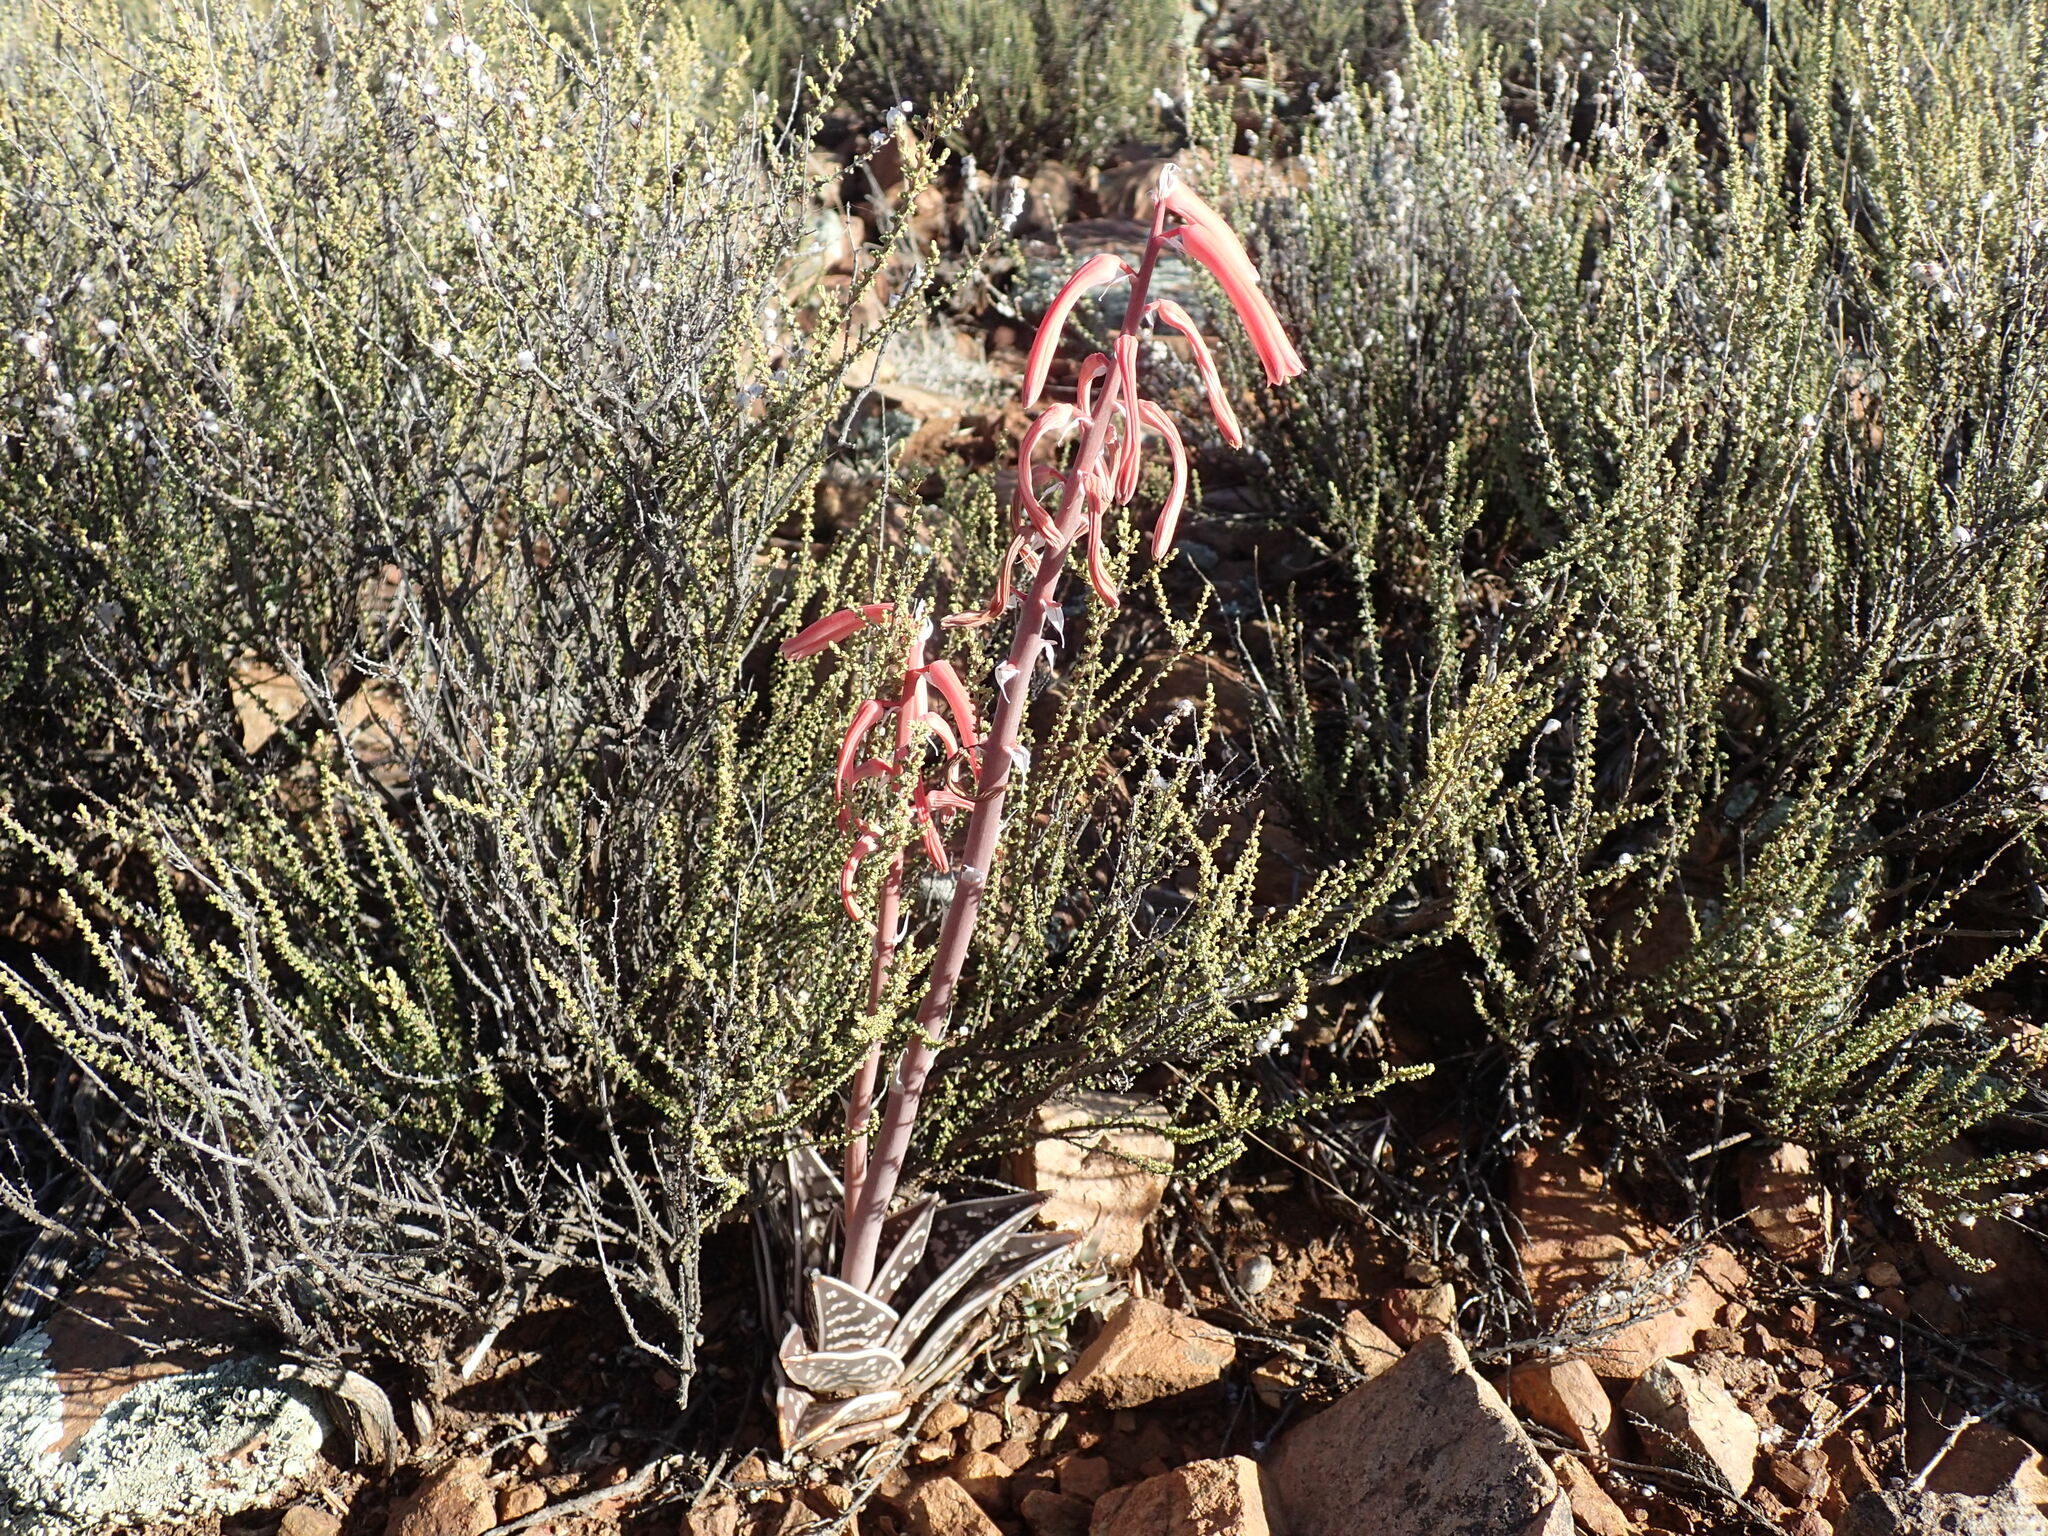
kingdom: Plantae
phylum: Tracheophyta
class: Liliopsida
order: Asparagales
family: Asphodelaceae
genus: Gonialoe
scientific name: Gonialoe variegata
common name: Aloe variegata
